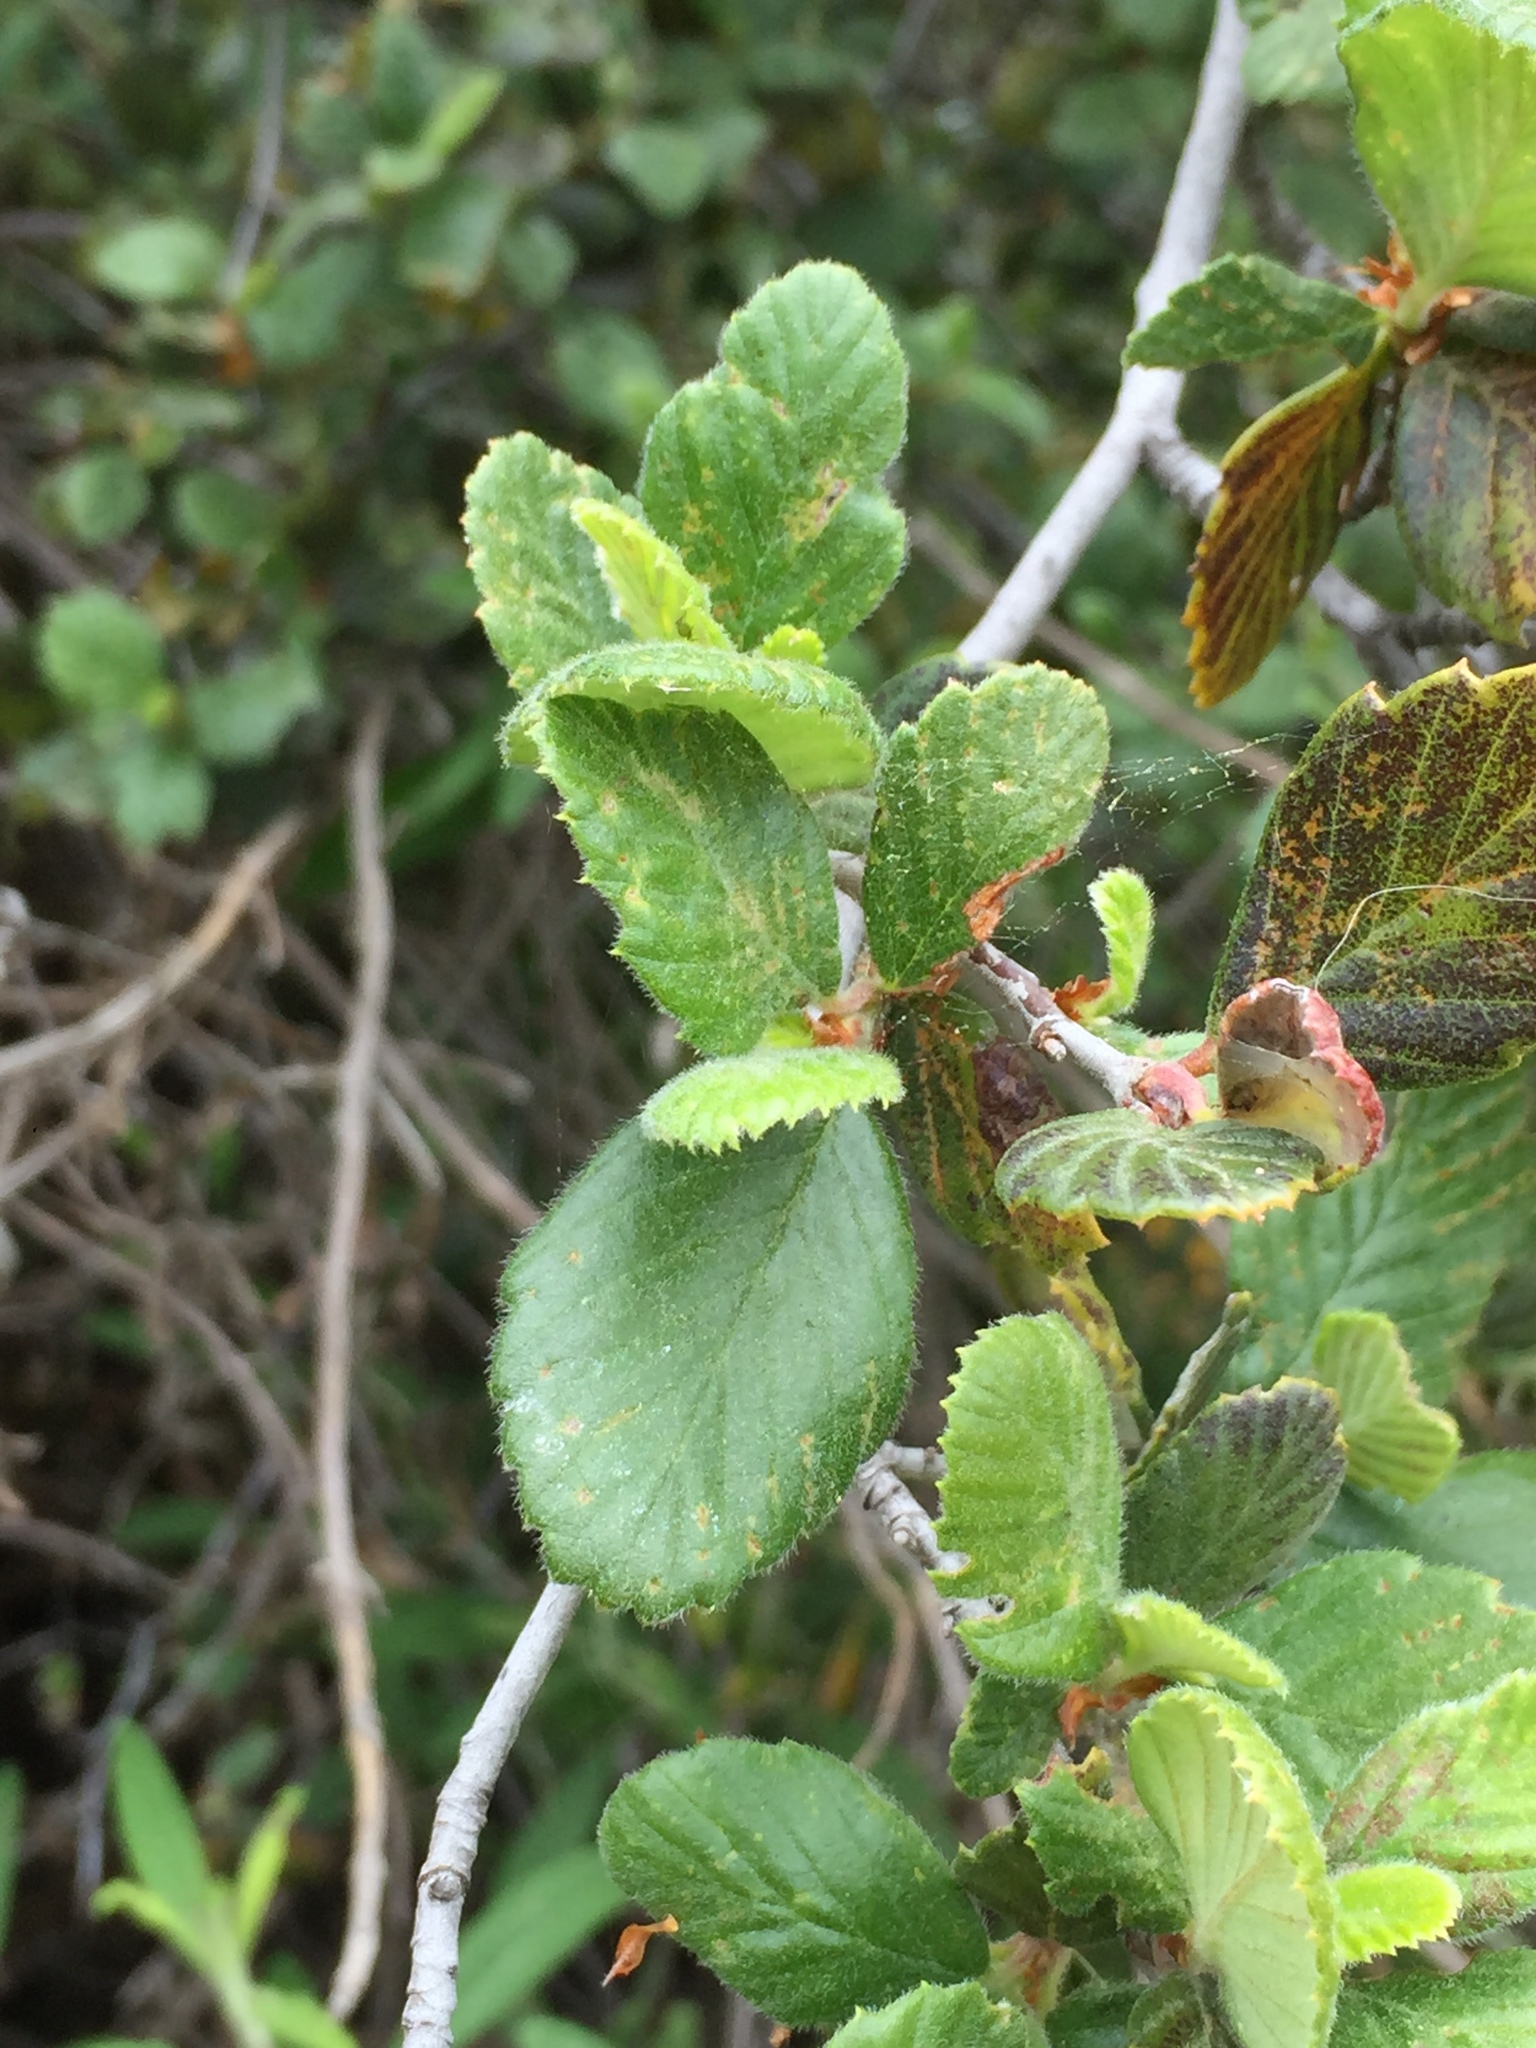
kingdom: Plantae
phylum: Tracheophyta
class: Magnoliopsida
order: Rosales
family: Rosaceae
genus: Cercocarpus
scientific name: Cercocarpus betuloides
